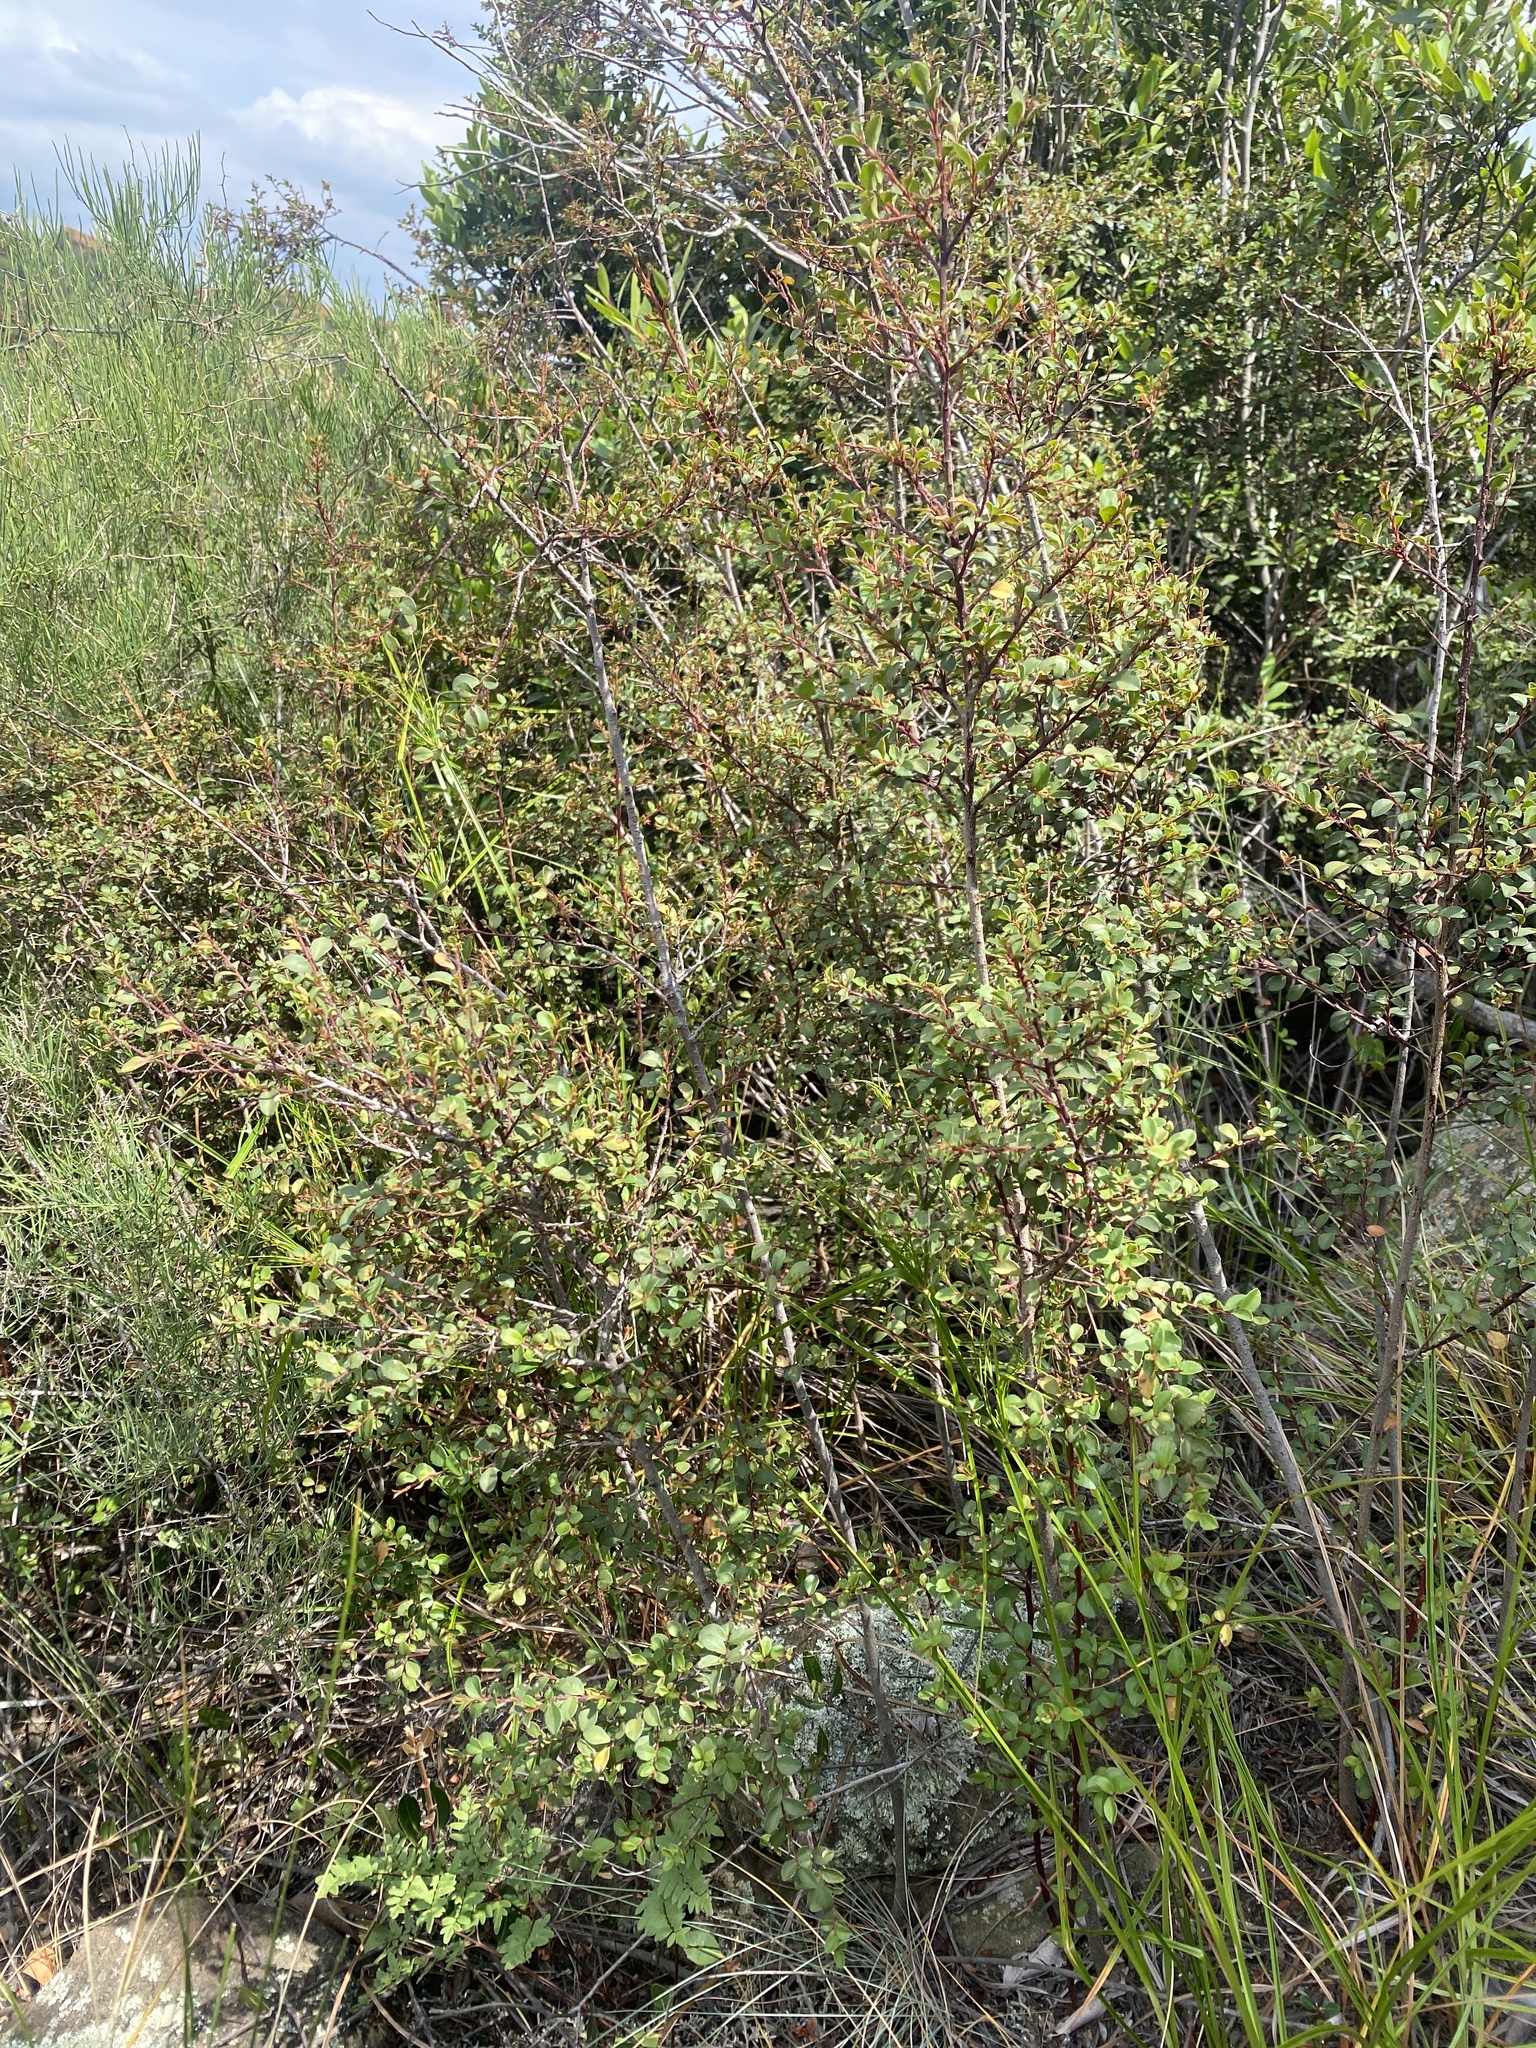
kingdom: Plantae
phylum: Tracheophyta
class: Magnoliopsida
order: Ericales
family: Primulaceae
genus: Myrsine
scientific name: Myrsine africana
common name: African-boxwood
